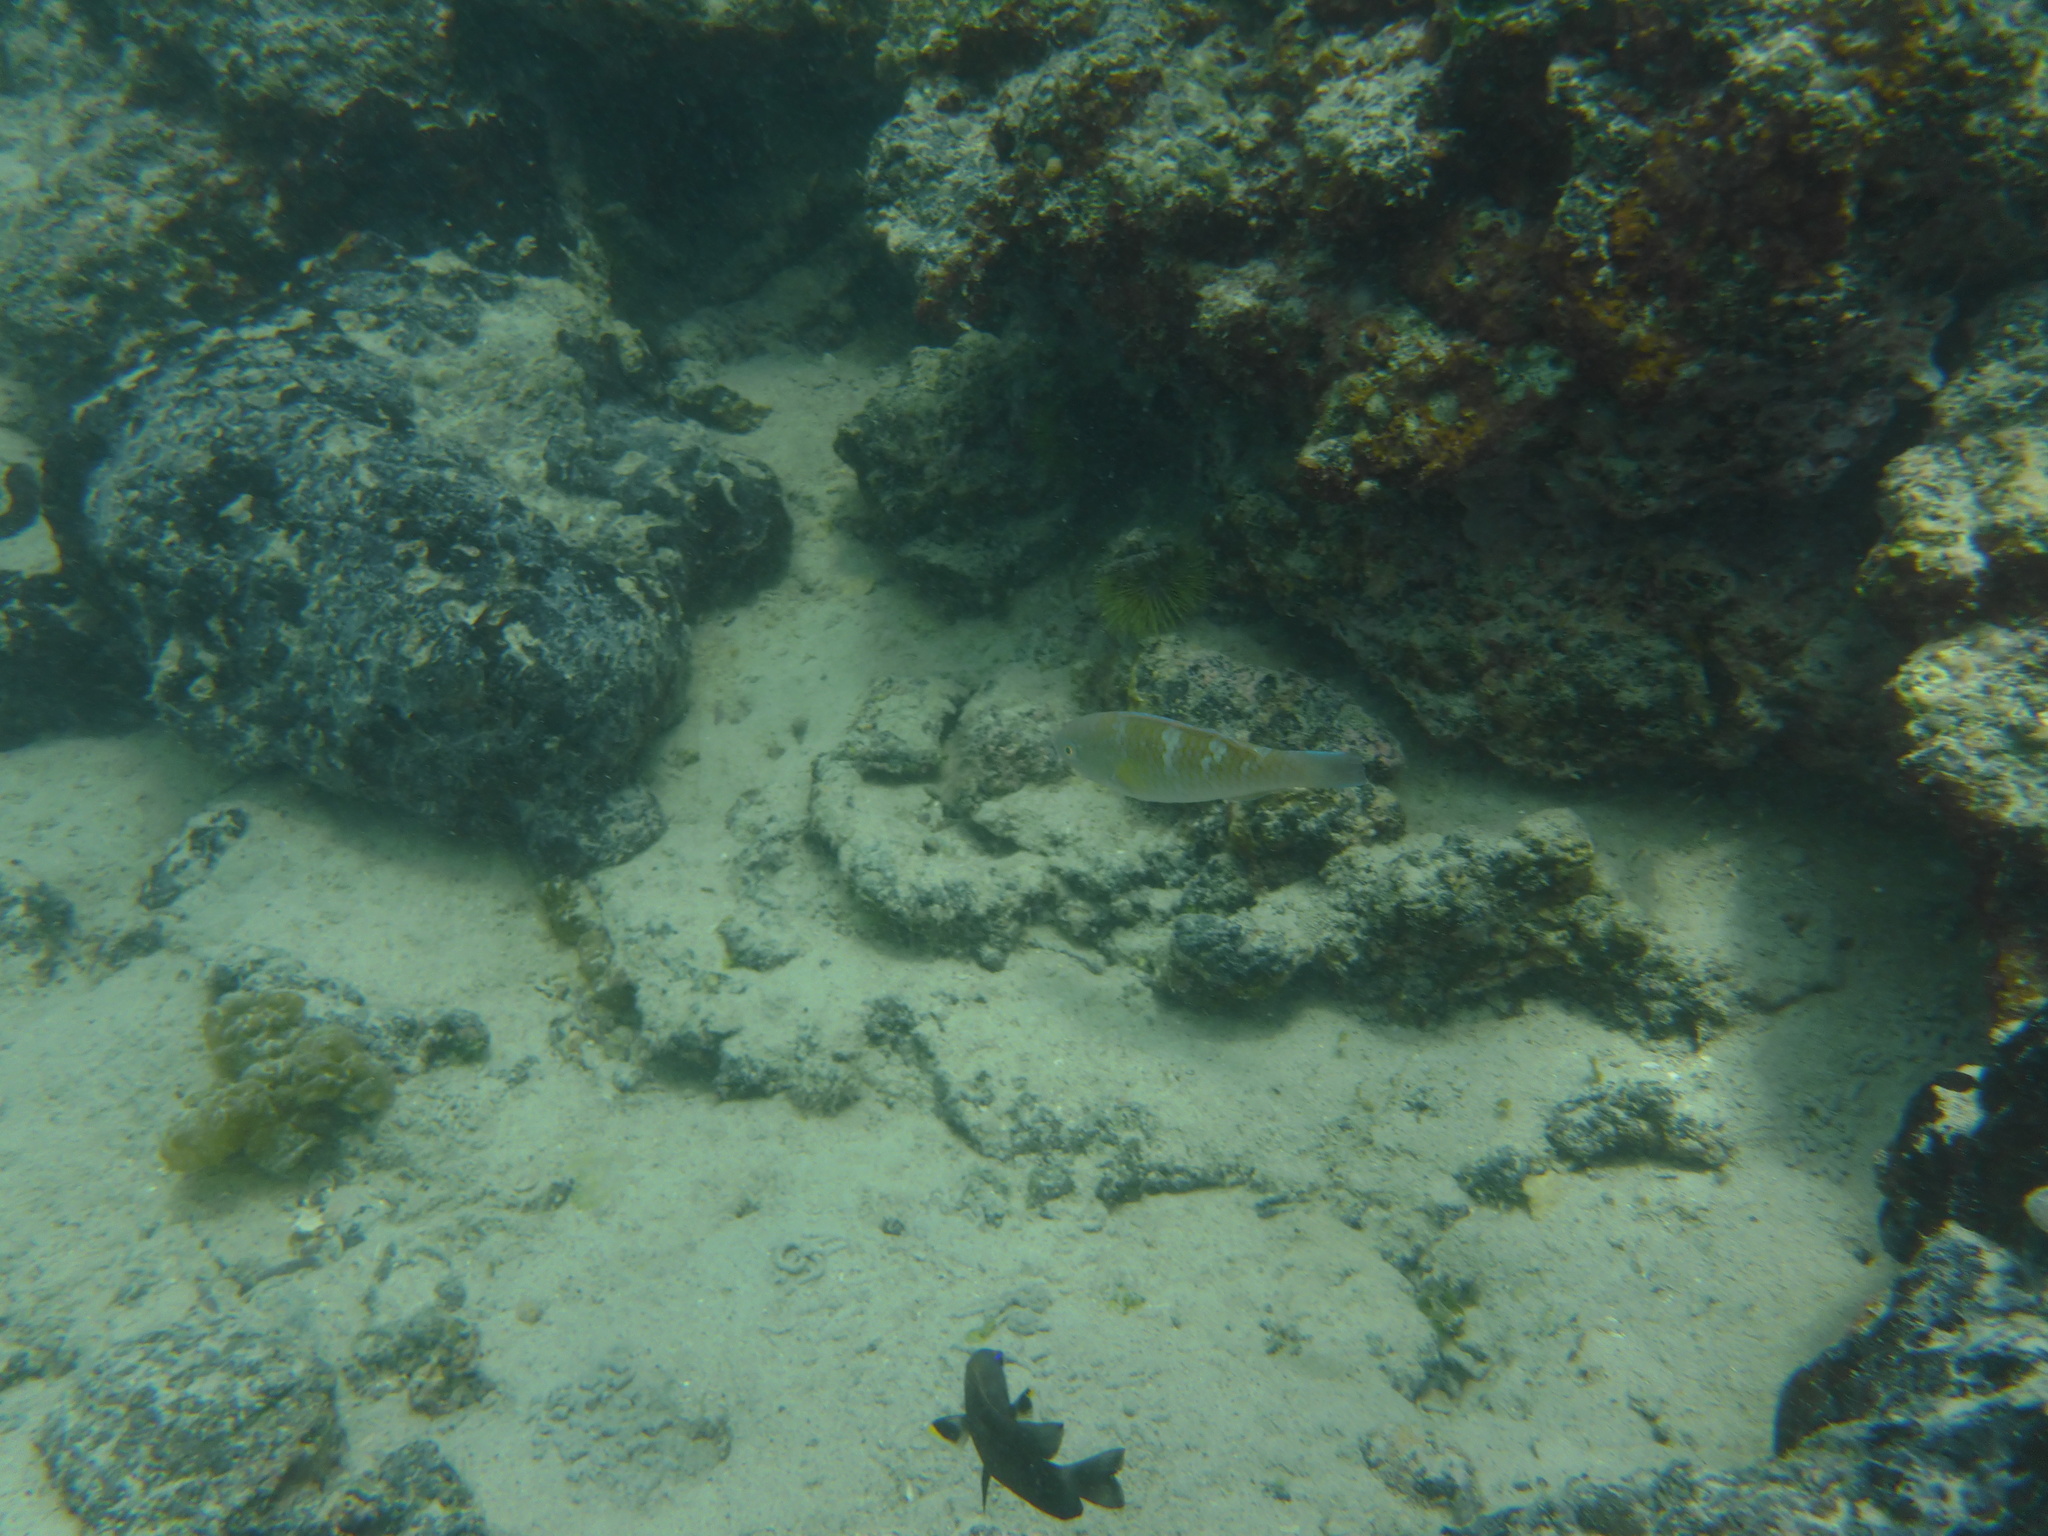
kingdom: Animalia
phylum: Chordata
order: Perciformes
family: Scaridae
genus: Scarus
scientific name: Scarus ghobban
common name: Blue-barred parrotfish
